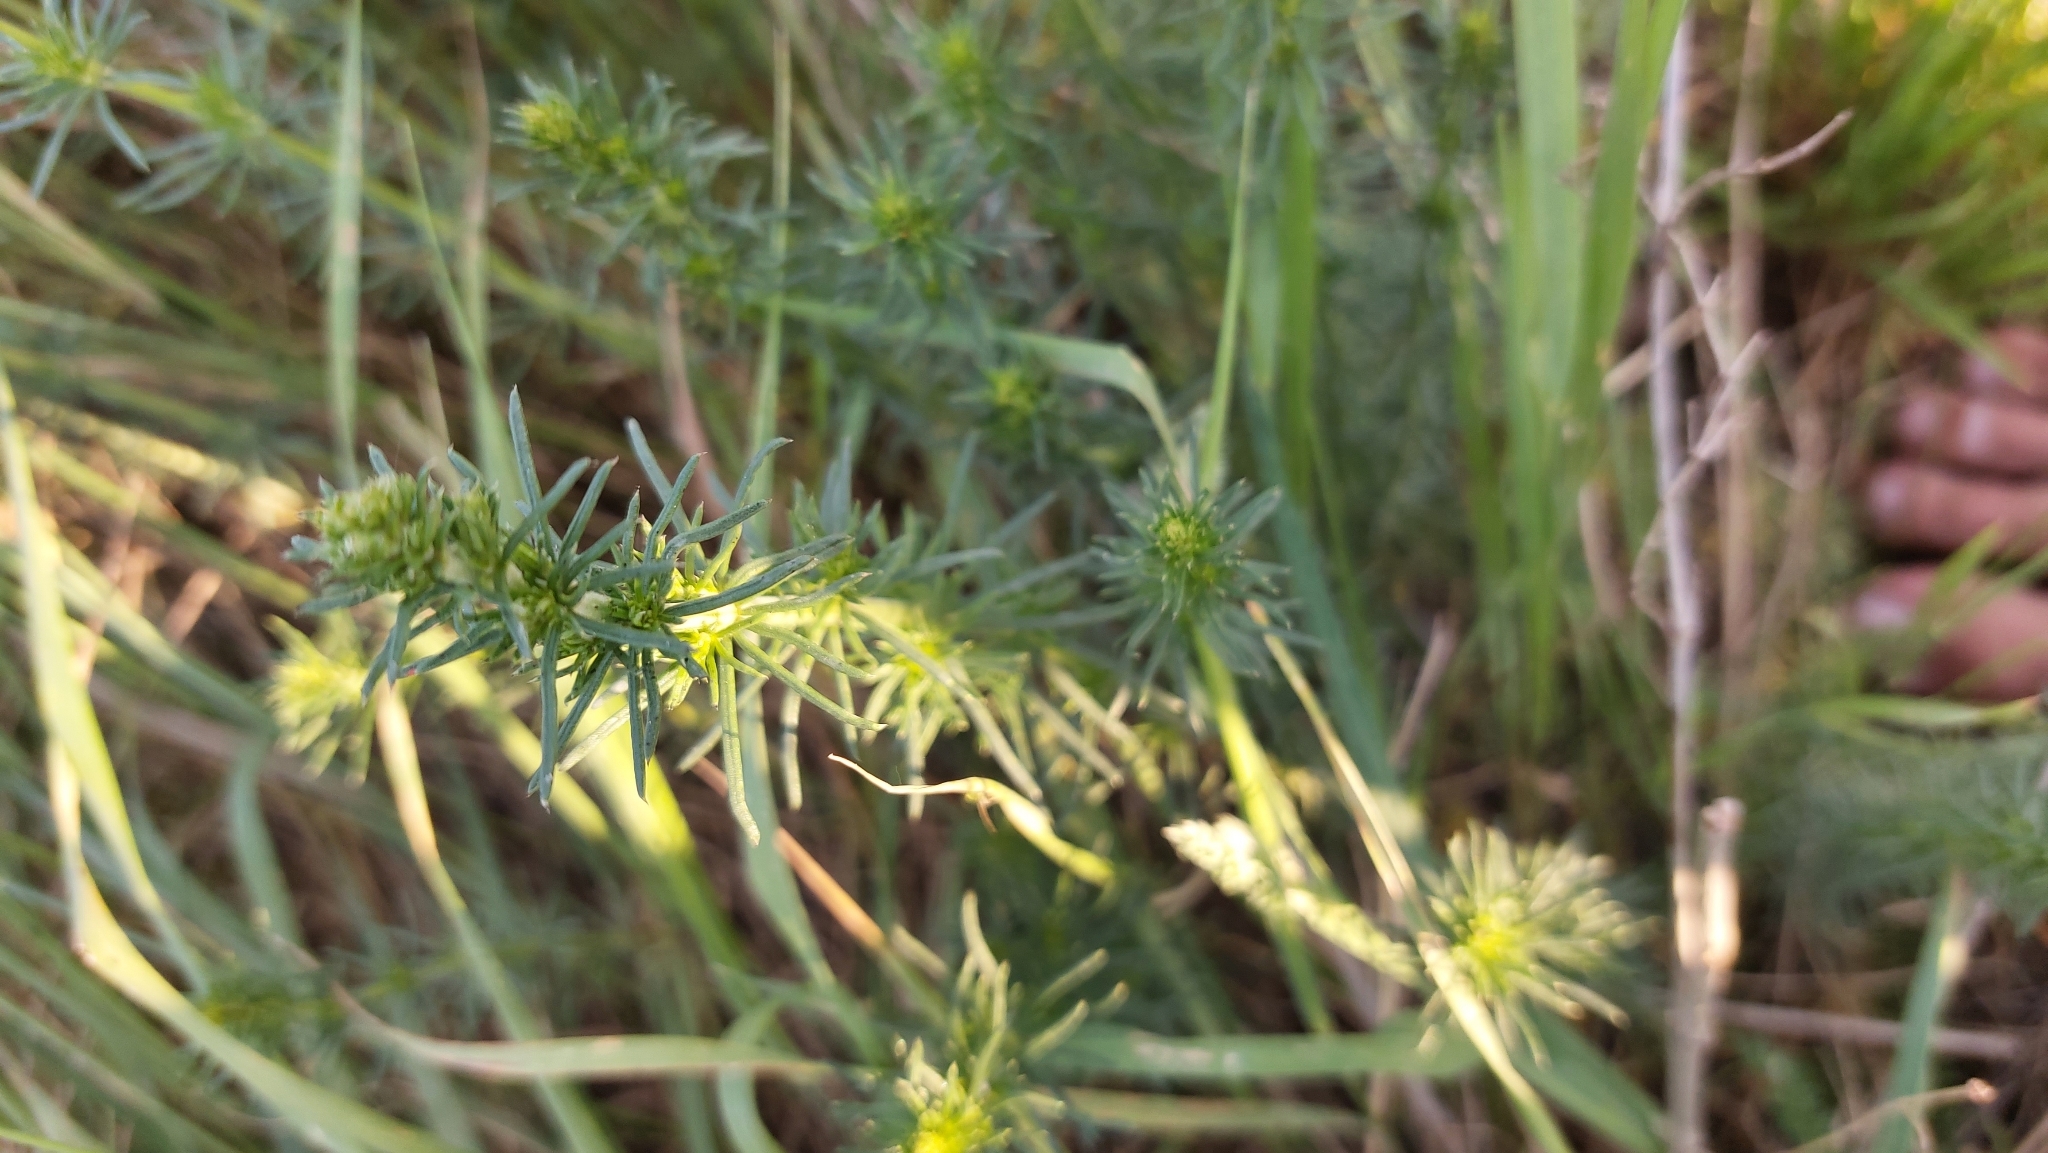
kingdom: Plantae
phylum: Tracheophyta
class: Magnoliopsida
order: Gentianales
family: Rubiaceae
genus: Galium
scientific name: Galium verum
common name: Lady's bedstraw
